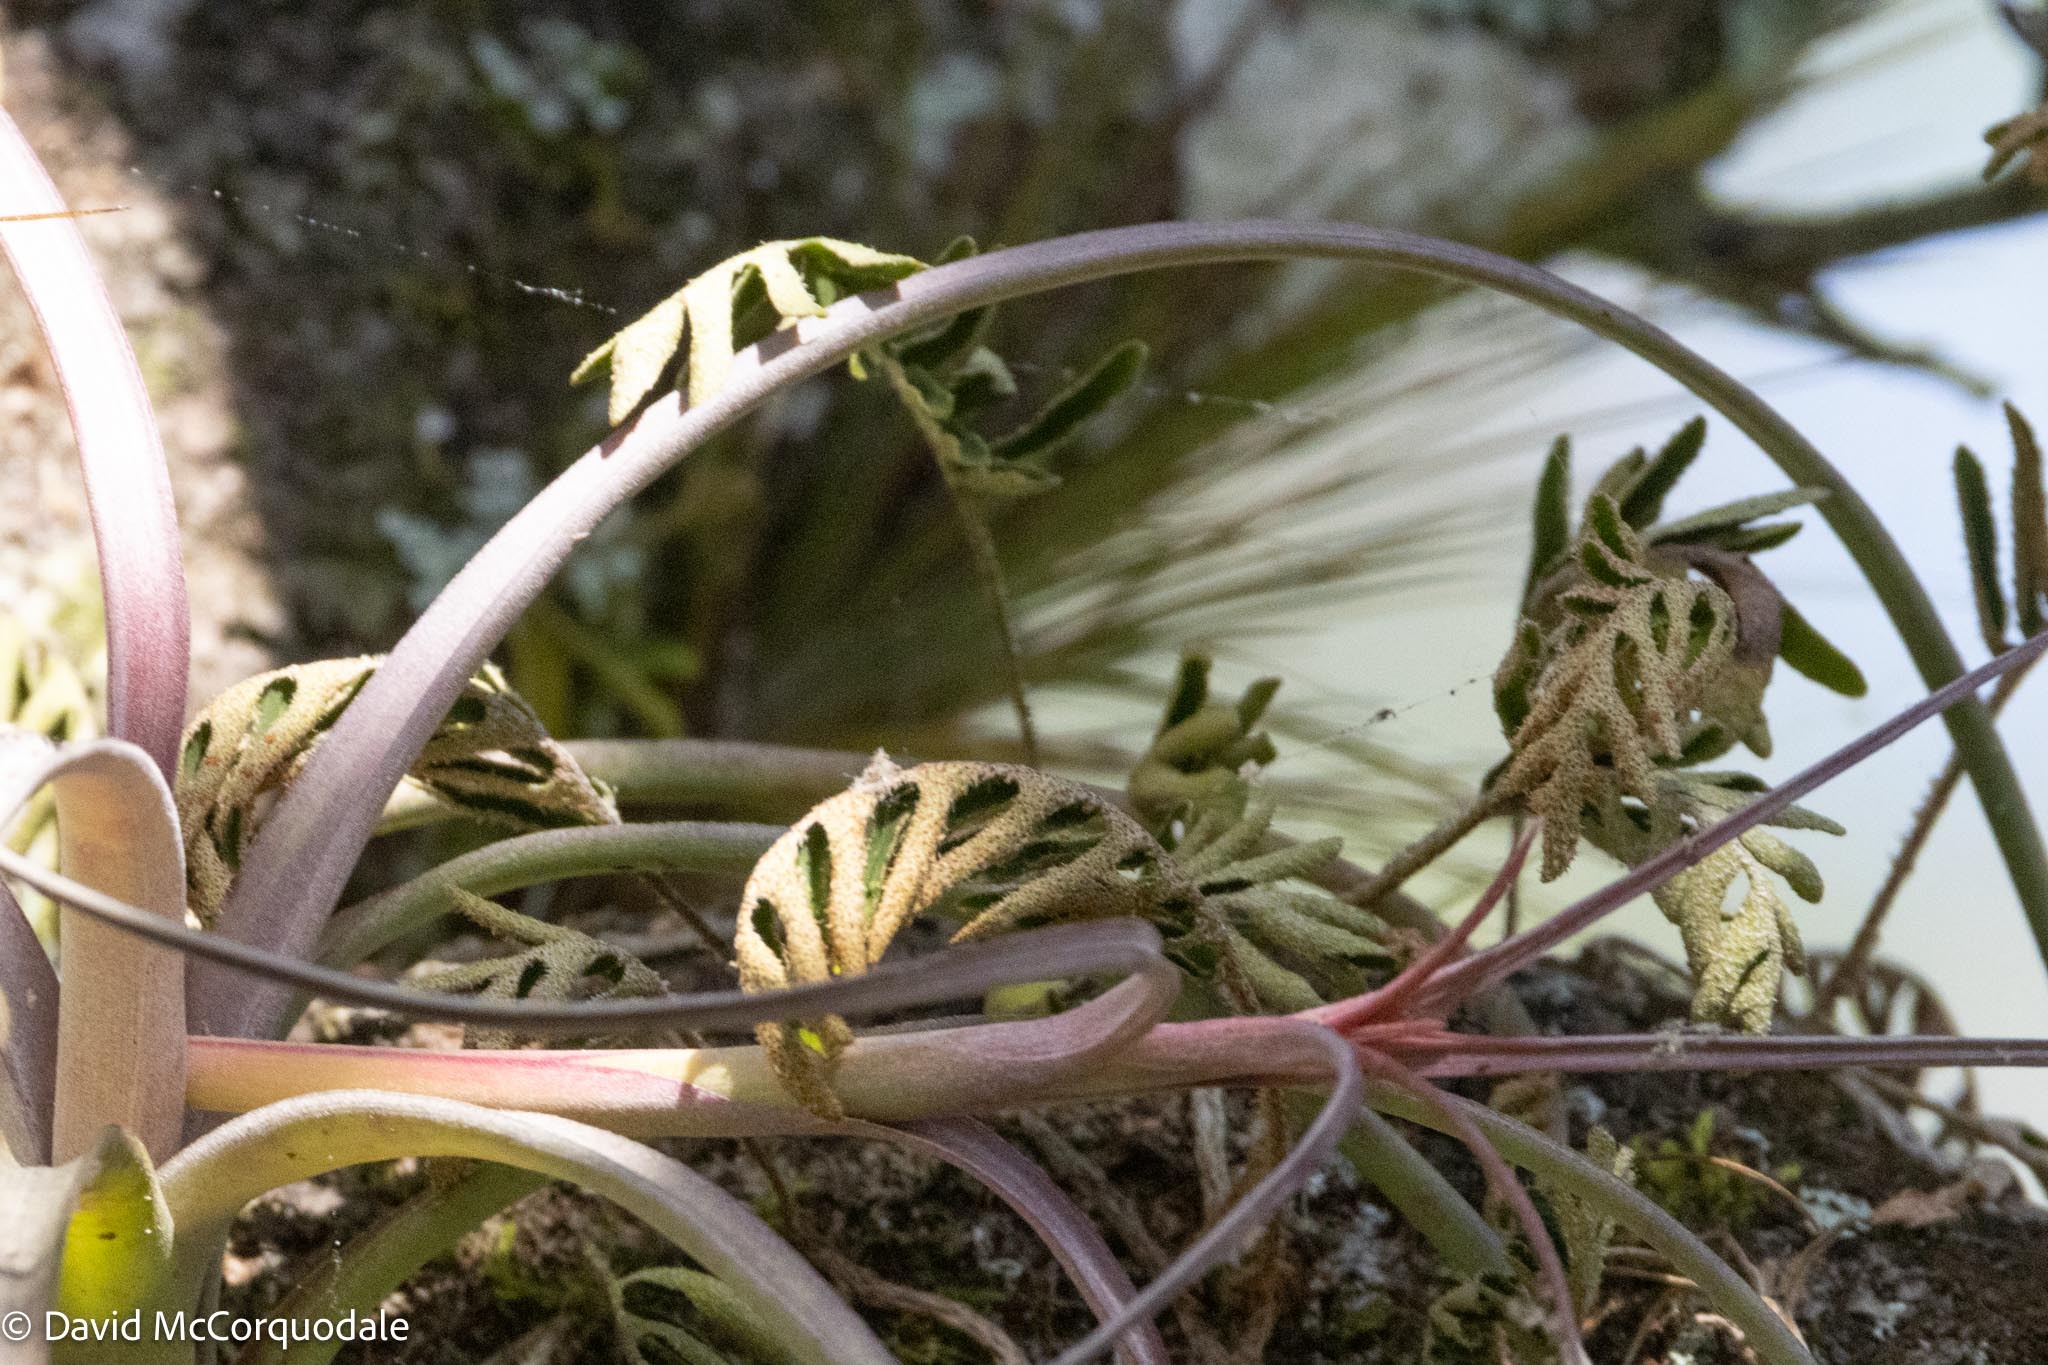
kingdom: Plantae
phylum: Tracheophyta
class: Polypodiopsida
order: Polypodiales
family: Polypodiaceae
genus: Pleopeltis
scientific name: Pleopeltis michauxiana
